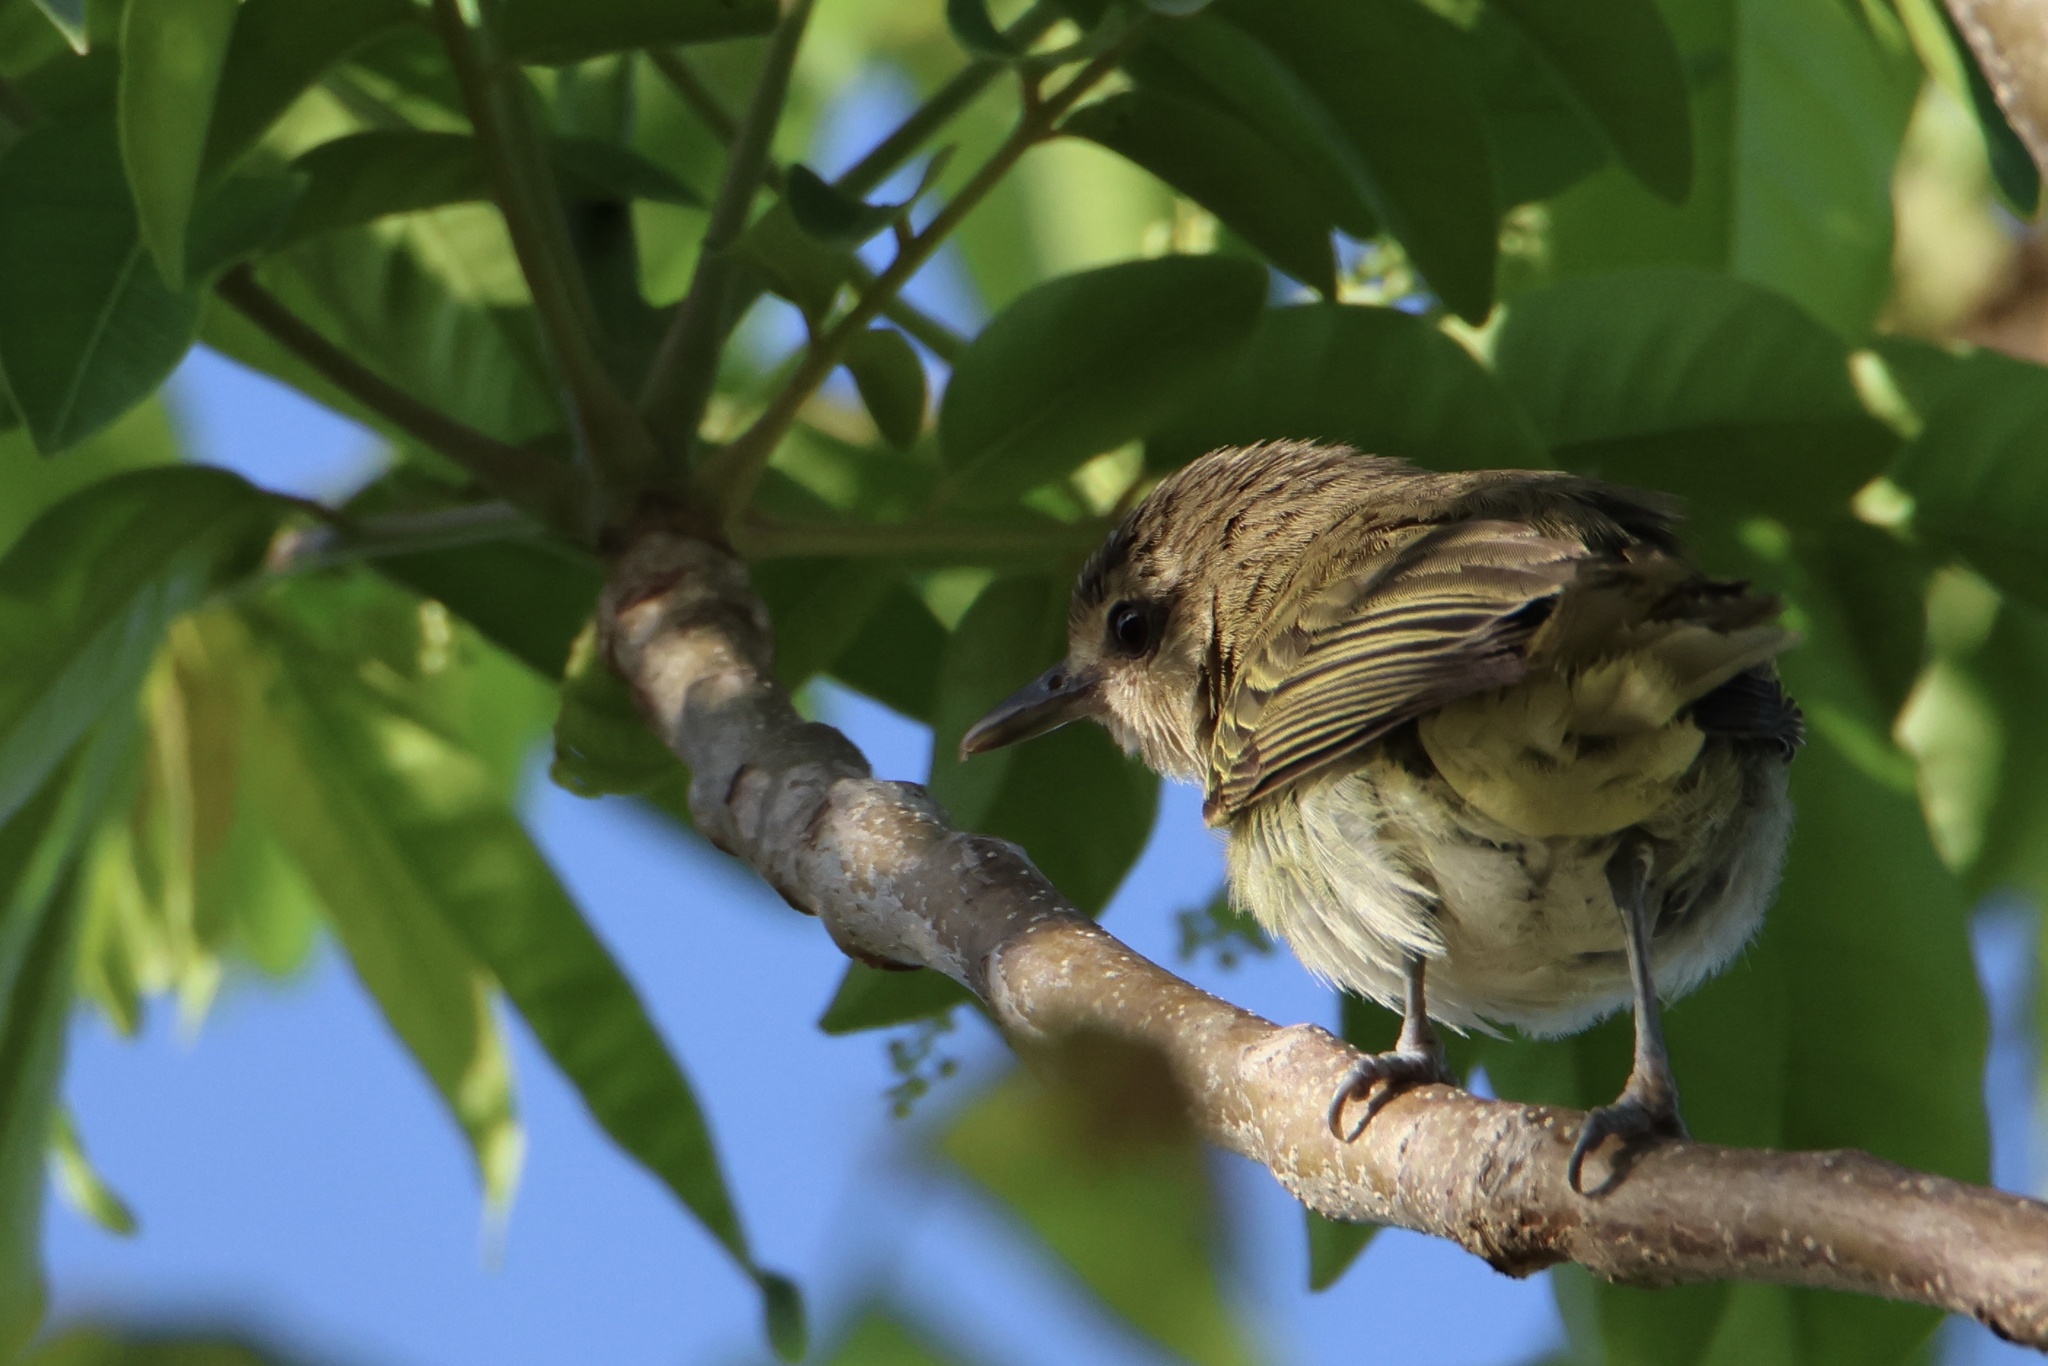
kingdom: Animalia
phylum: Chordata
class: Aves
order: Passeriformes
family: Vireonidae
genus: Vireo
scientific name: Vireo altiloquus
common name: Black-whiskered vireo
